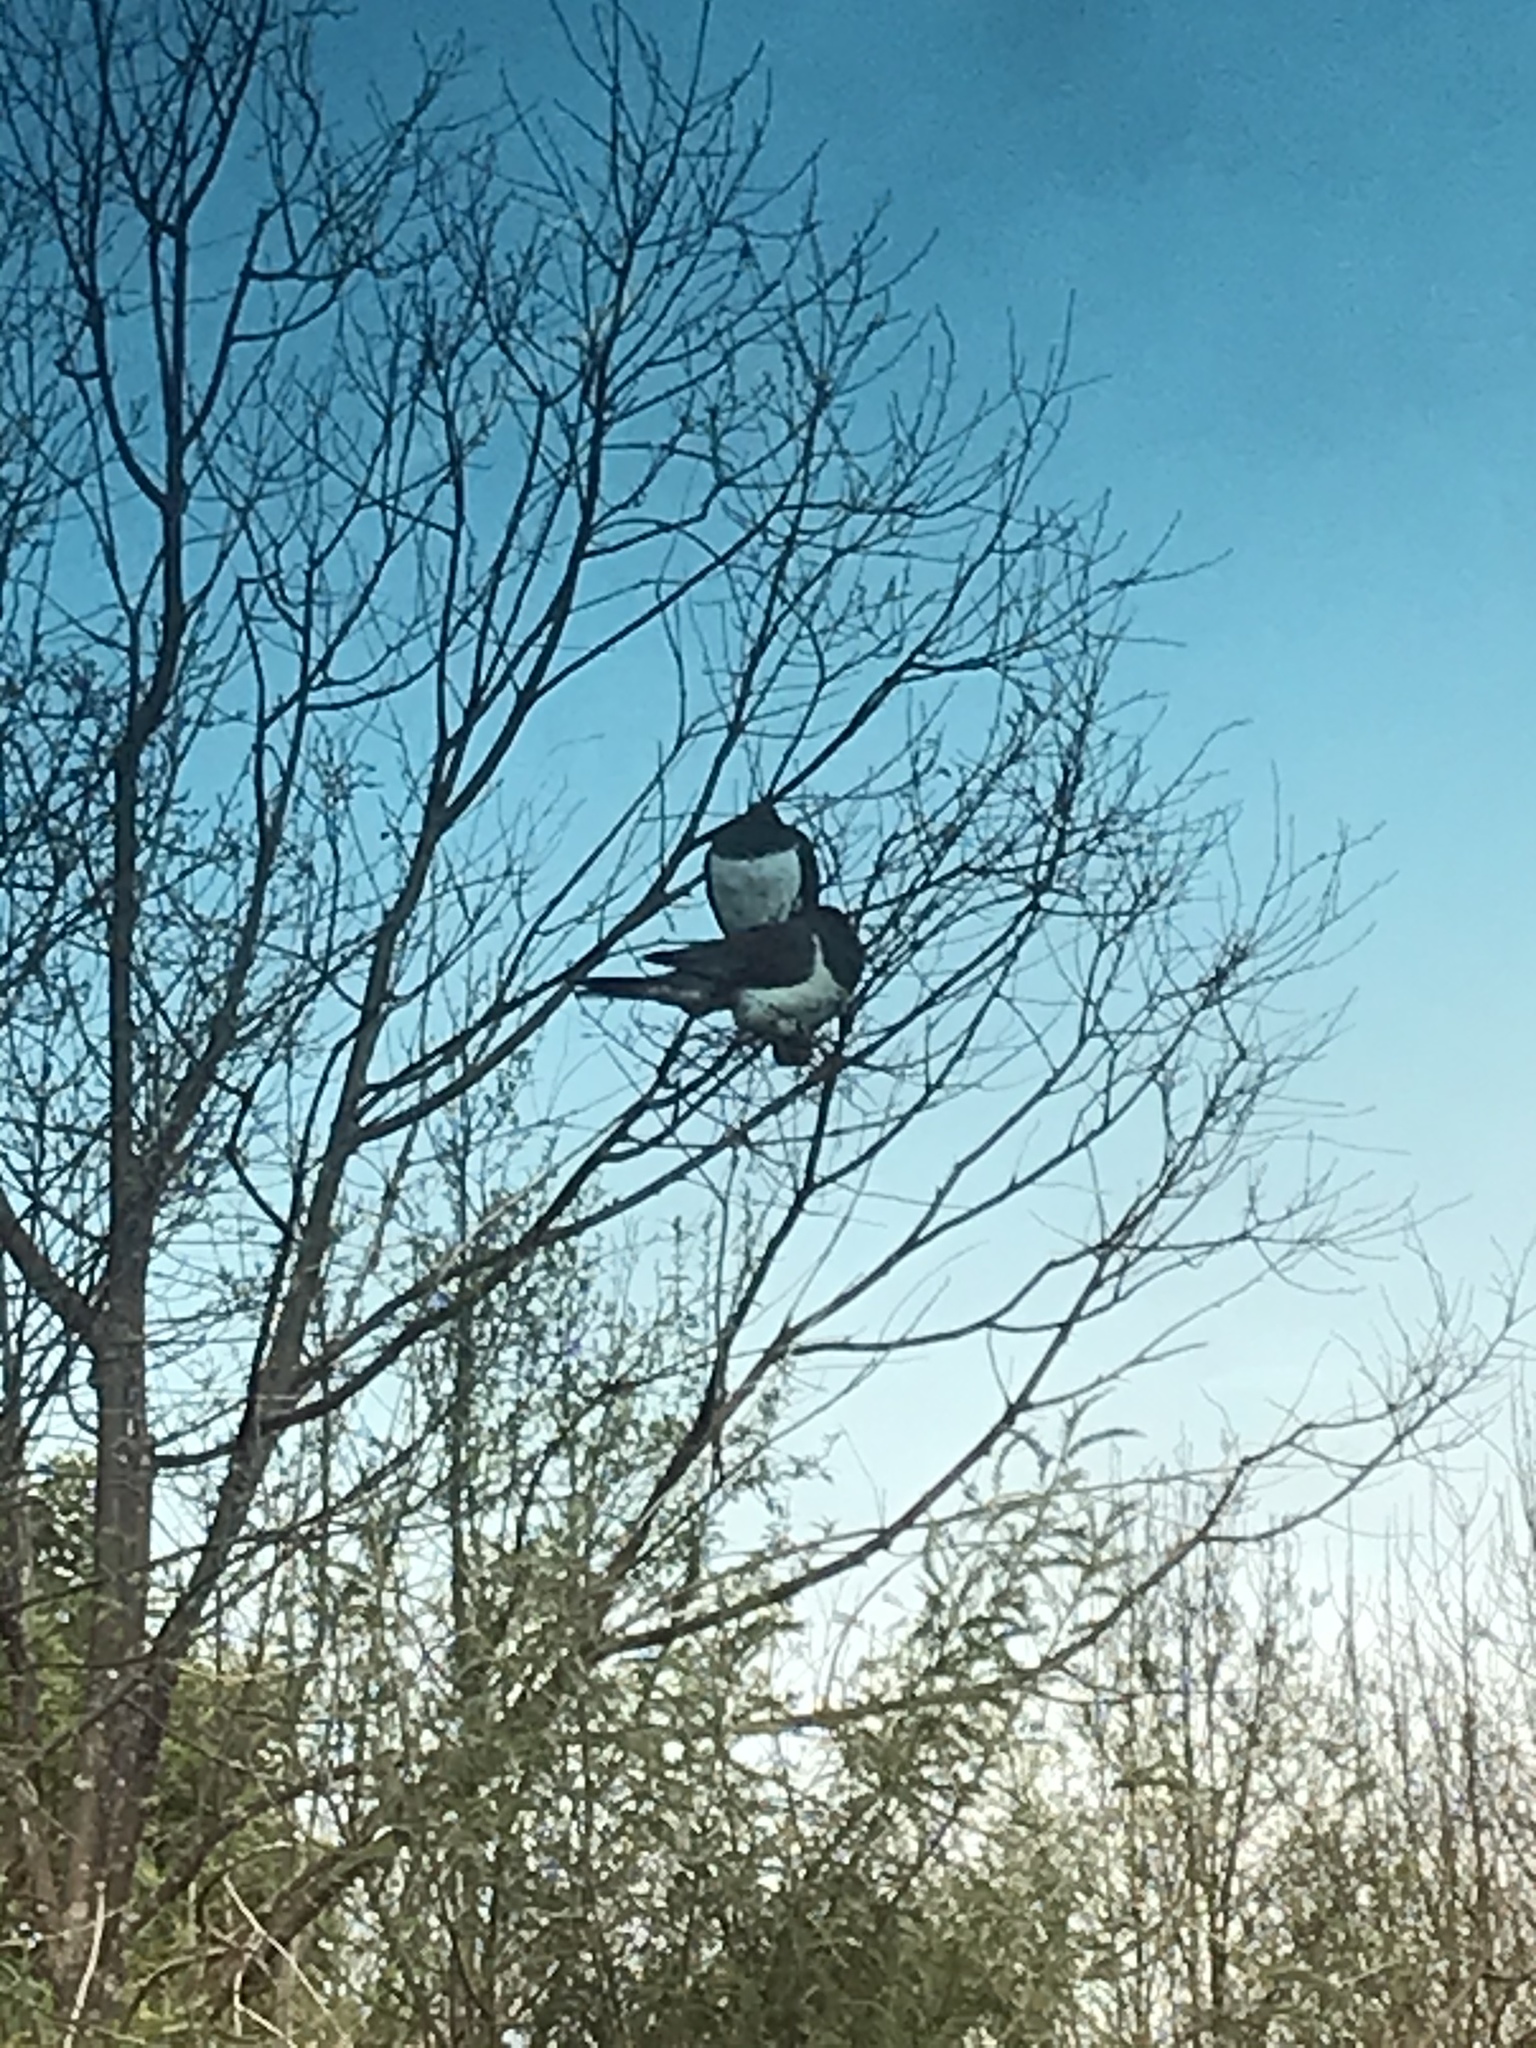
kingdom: Animalia
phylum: Chordata
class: Aves
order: Columbiformes
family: Columbidae
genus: Hemiphaga
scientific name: Hemiphaga novaeseelandiae
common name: New zealand pigeon
